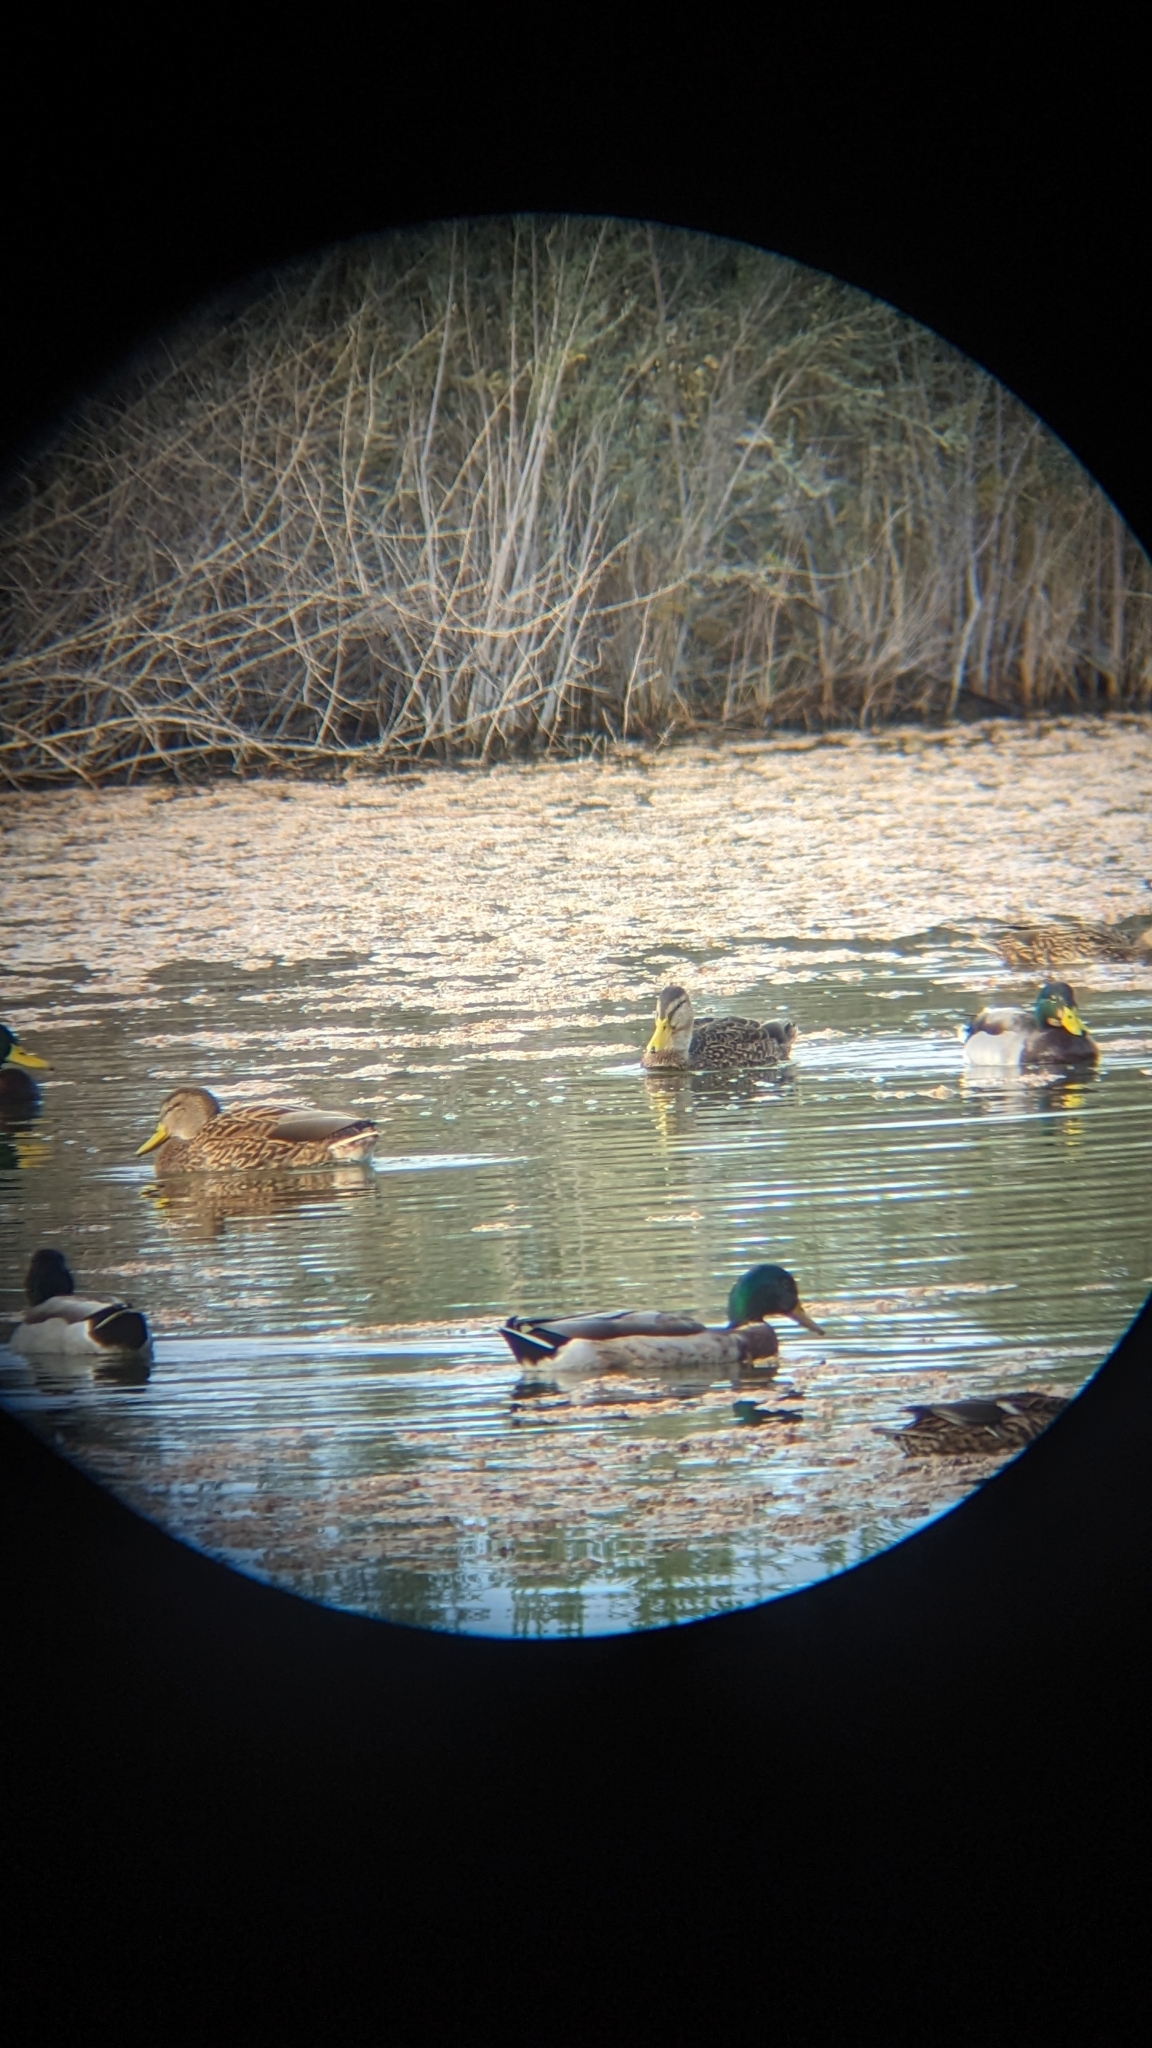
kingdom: Animalia
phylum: Chordata
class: Aves
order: Anseriformes
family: Anatidae
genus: Anas
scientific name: Anas platyrhynchos
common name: Mallard
